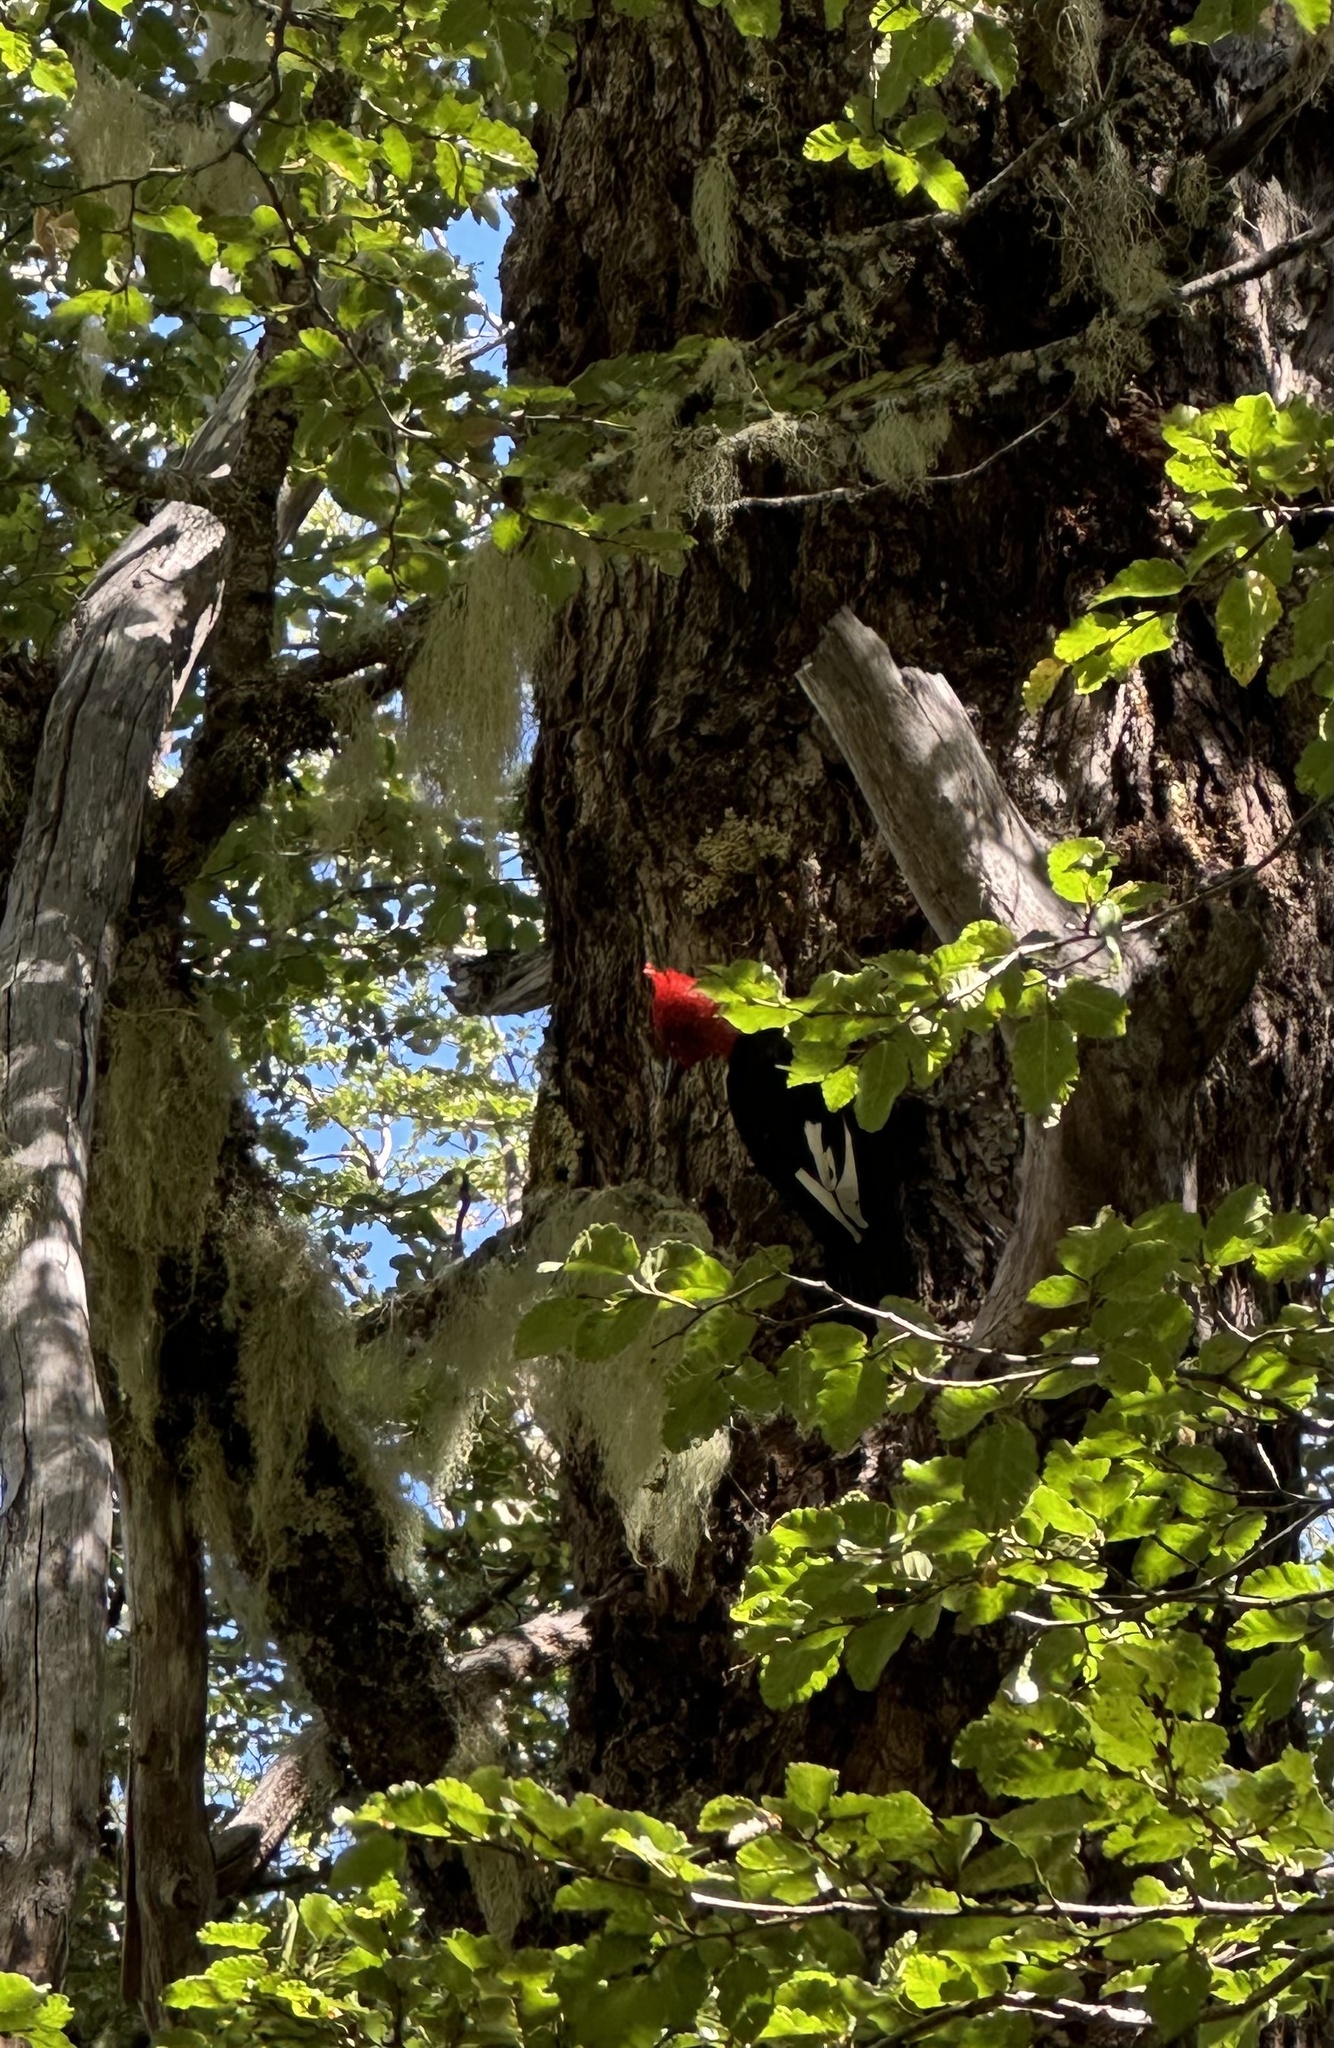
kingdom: Animalia
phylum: Chordata
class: Aves
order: Piciformes
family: Picidae
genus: Campephilus
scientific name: Campephilus magellanicus
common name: Magellanic woodpecker
